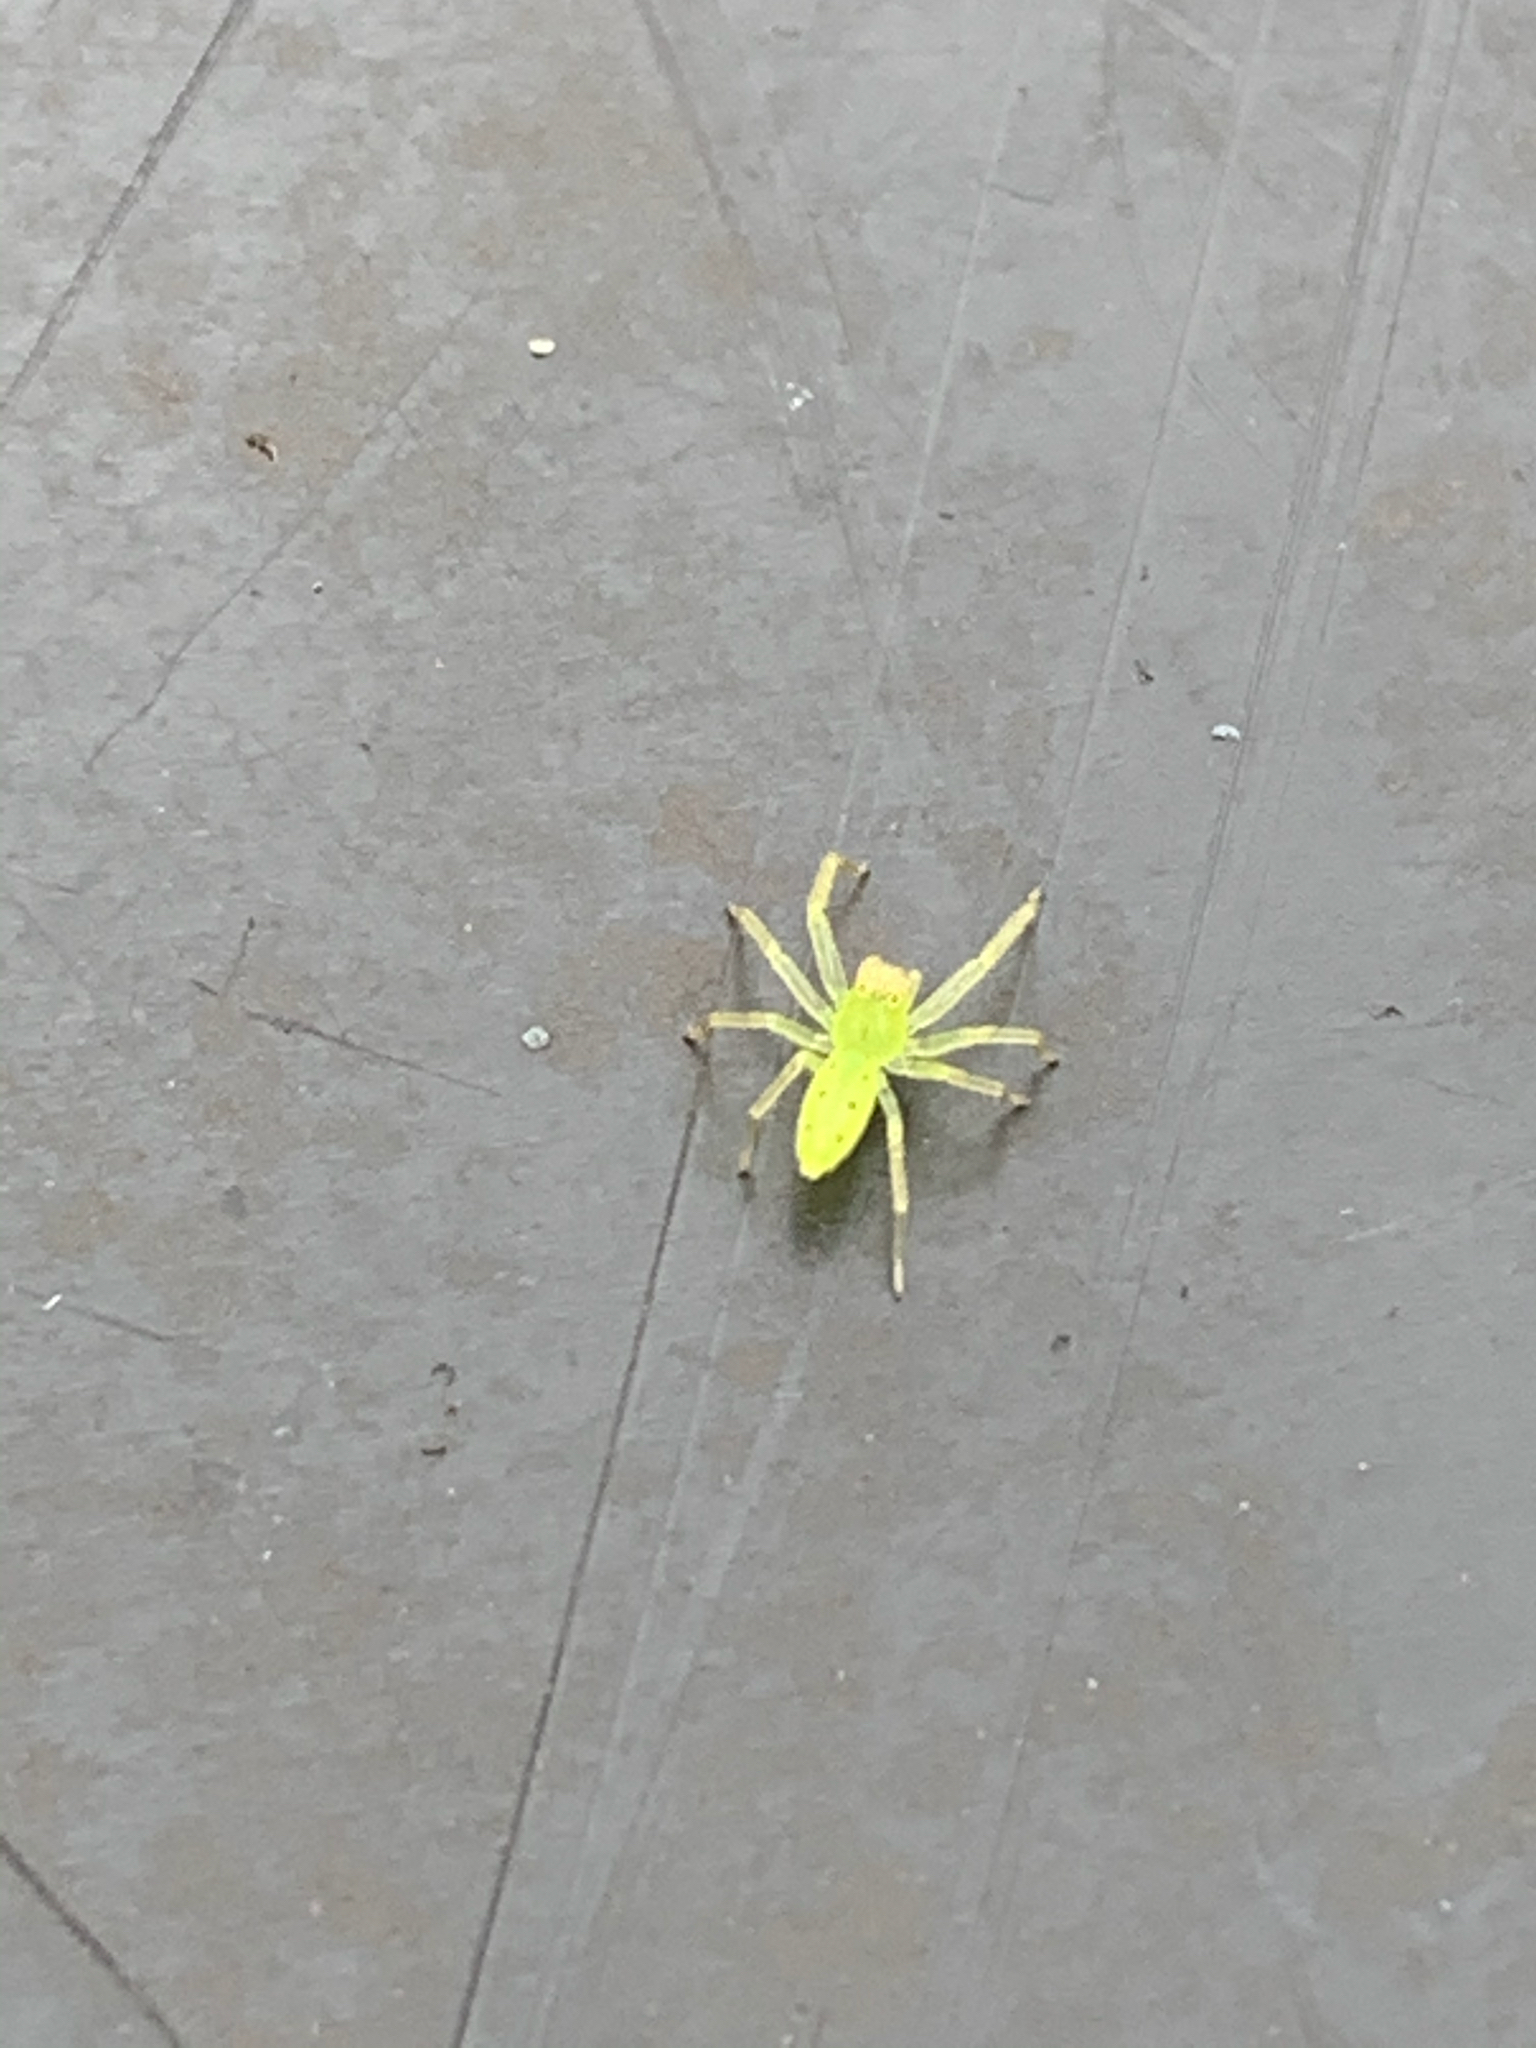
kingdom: Animalia
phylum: Arthropoda
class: Arachnida
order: Araneae
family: Salticidae
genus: Lyssomanes
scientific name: Lyssomanes viridis
